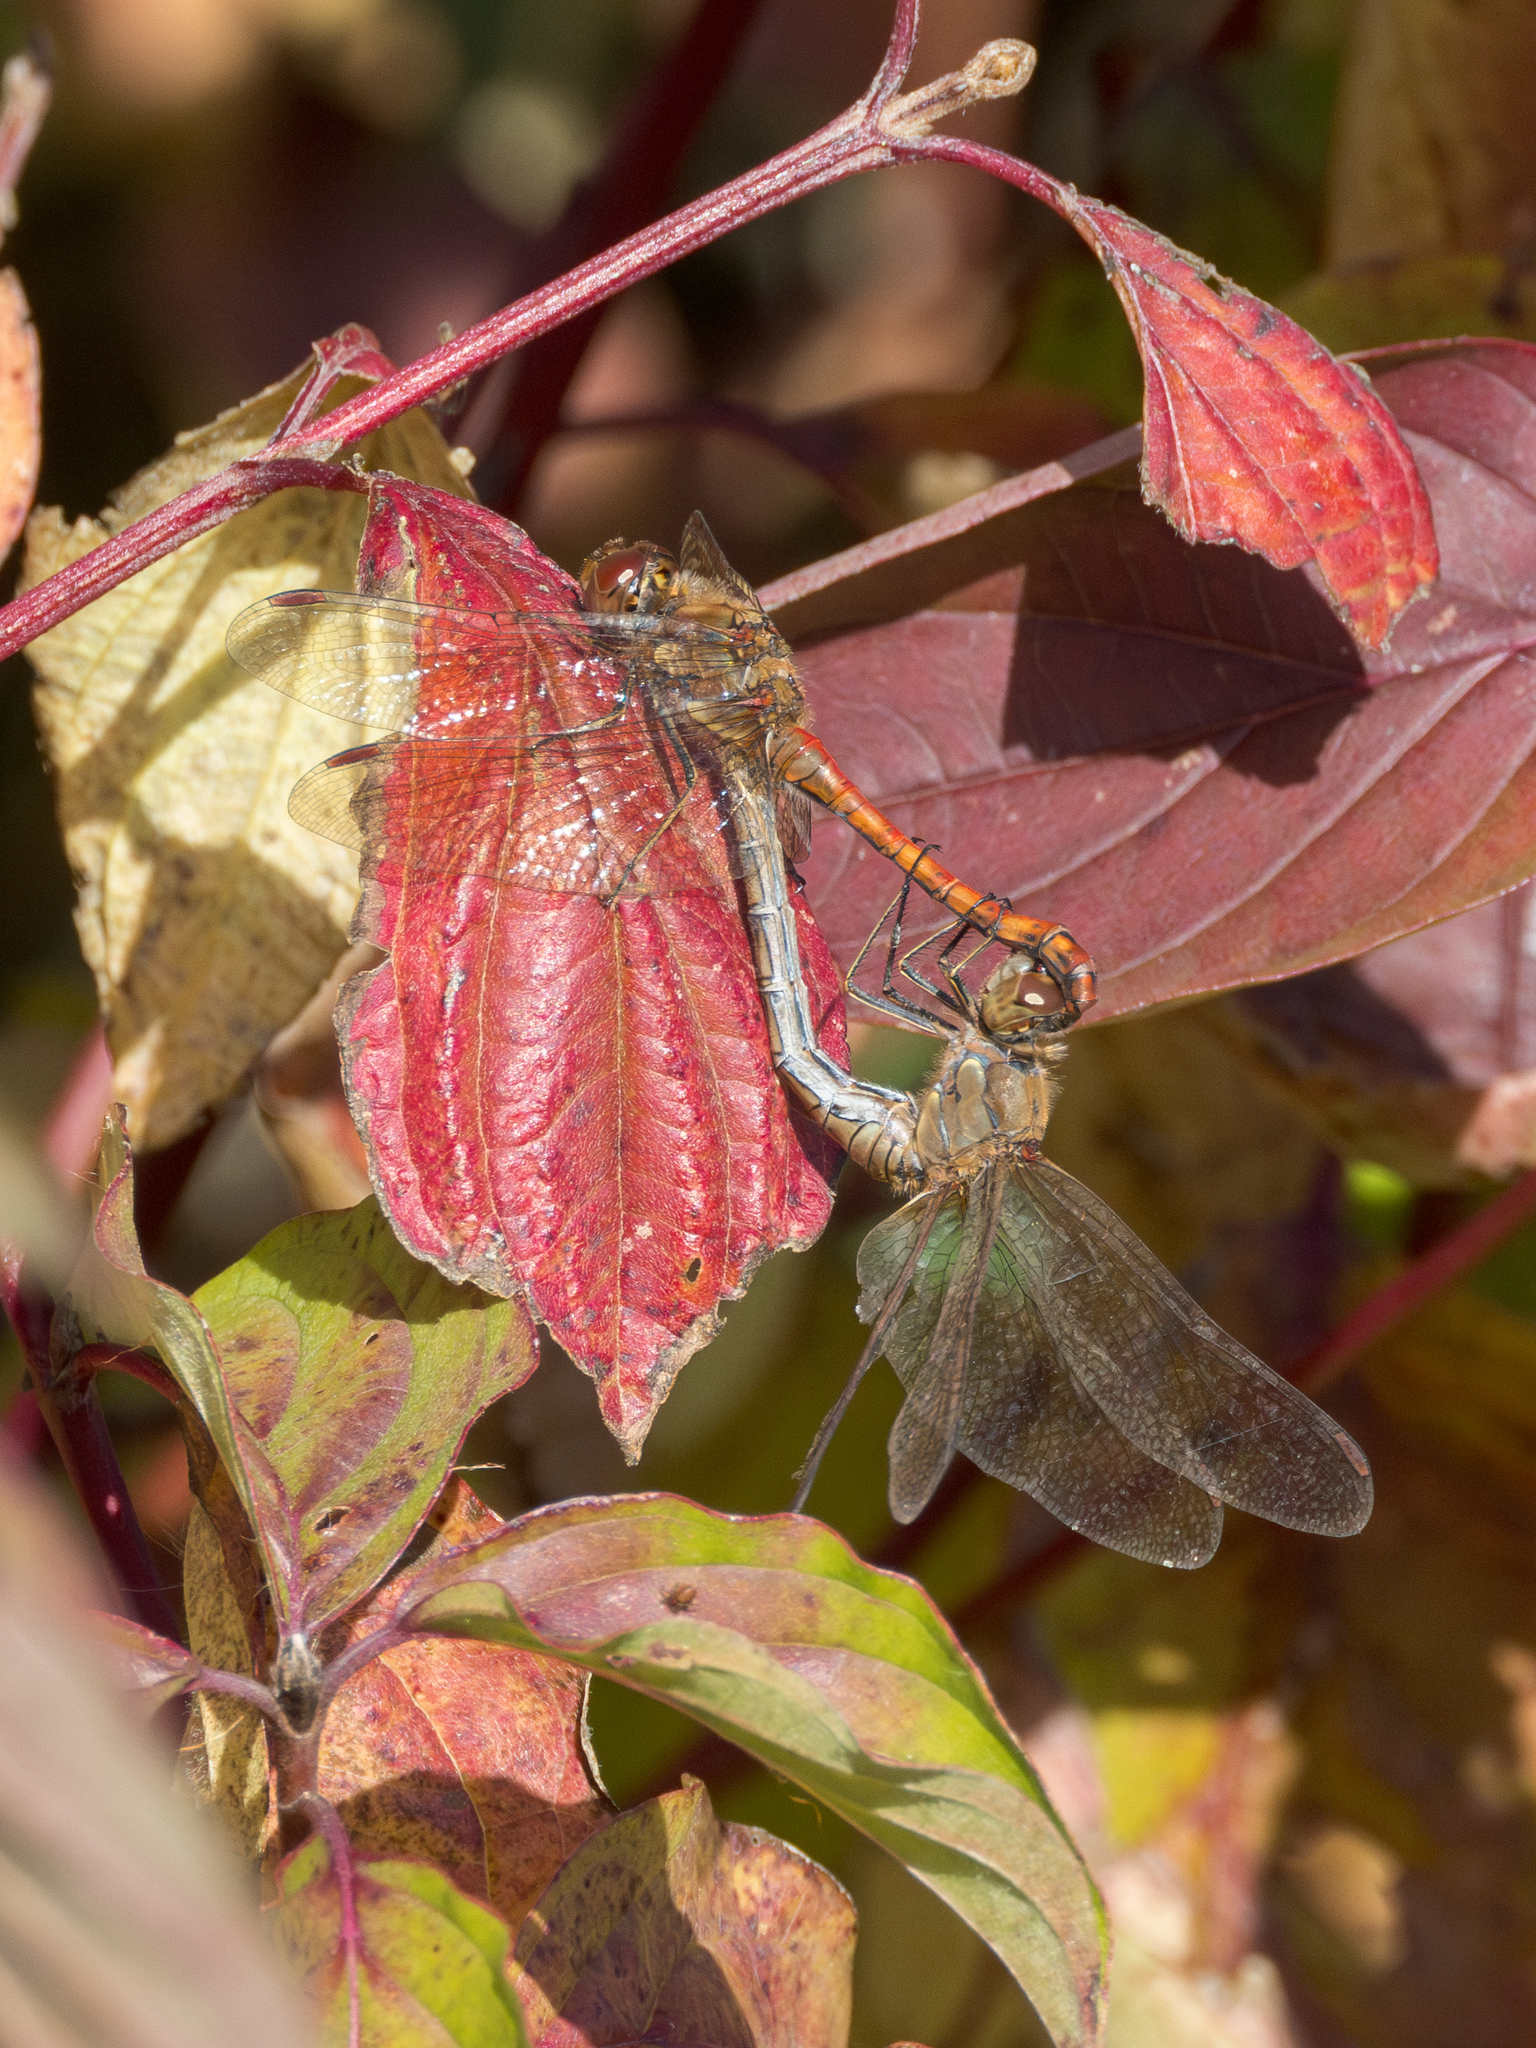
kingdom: Animalia
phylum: Arthropoda
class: Insecta
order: Odonata
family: Libellulidae
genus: Sympetrum
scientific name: Sympetrum striolatum
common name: Common darter
